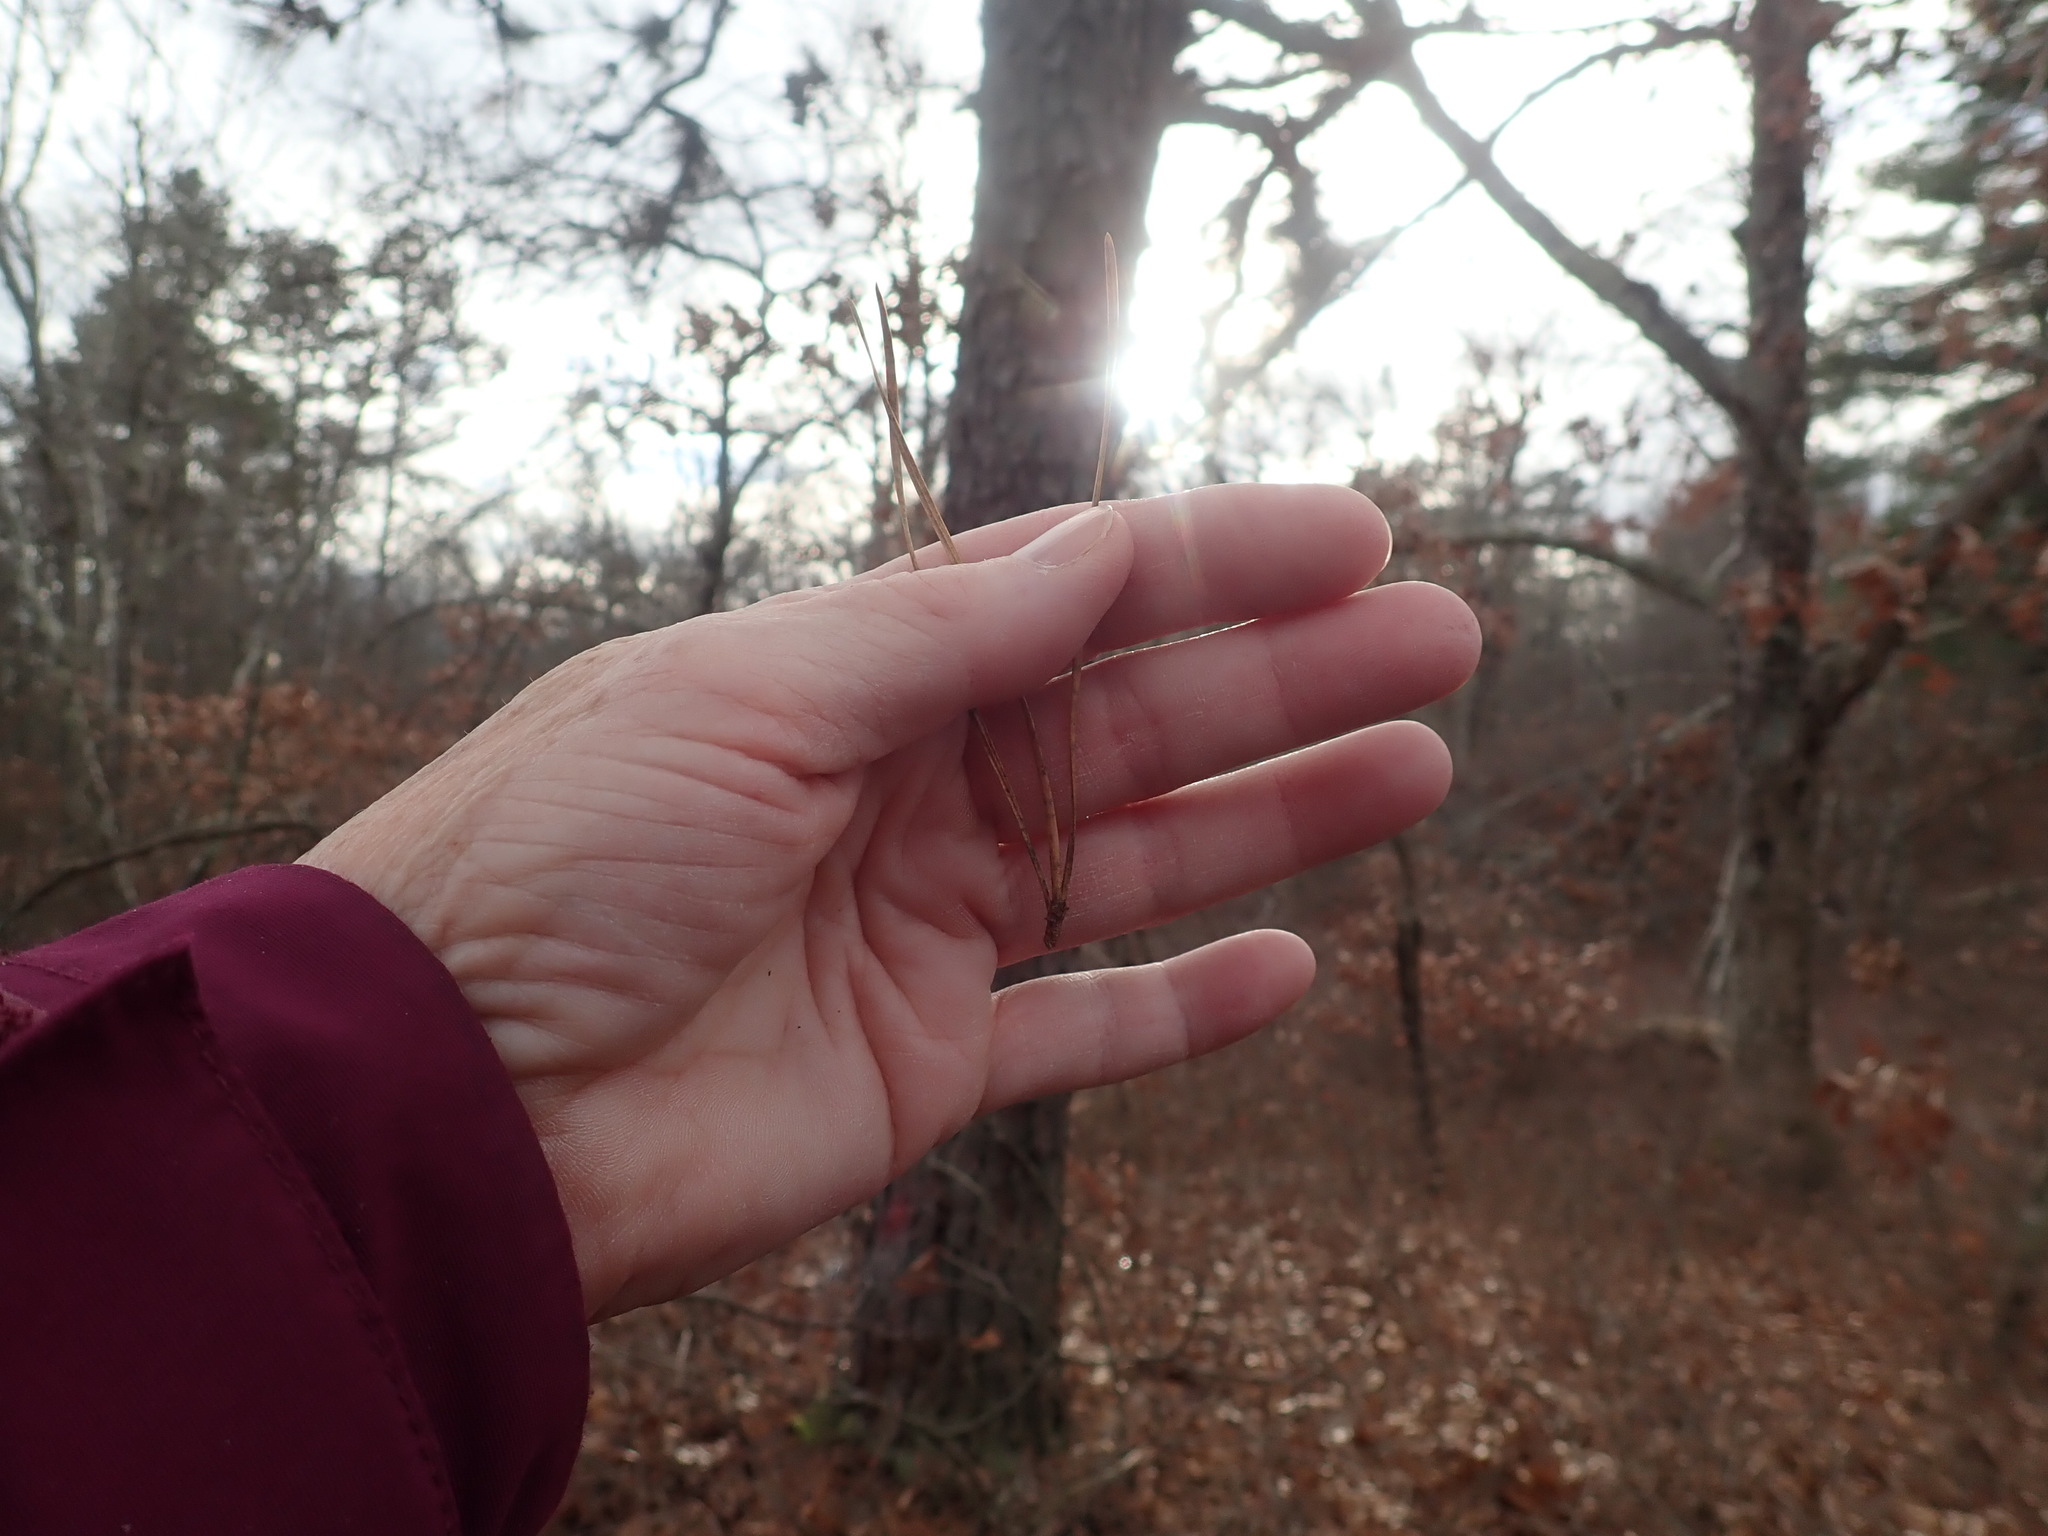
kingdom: Plantae
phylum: Tracheophyta
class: Pinopsida
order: Pinales
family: Pinaceae
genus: Pinus
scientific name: Pinus rigida
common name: Pitch pine
